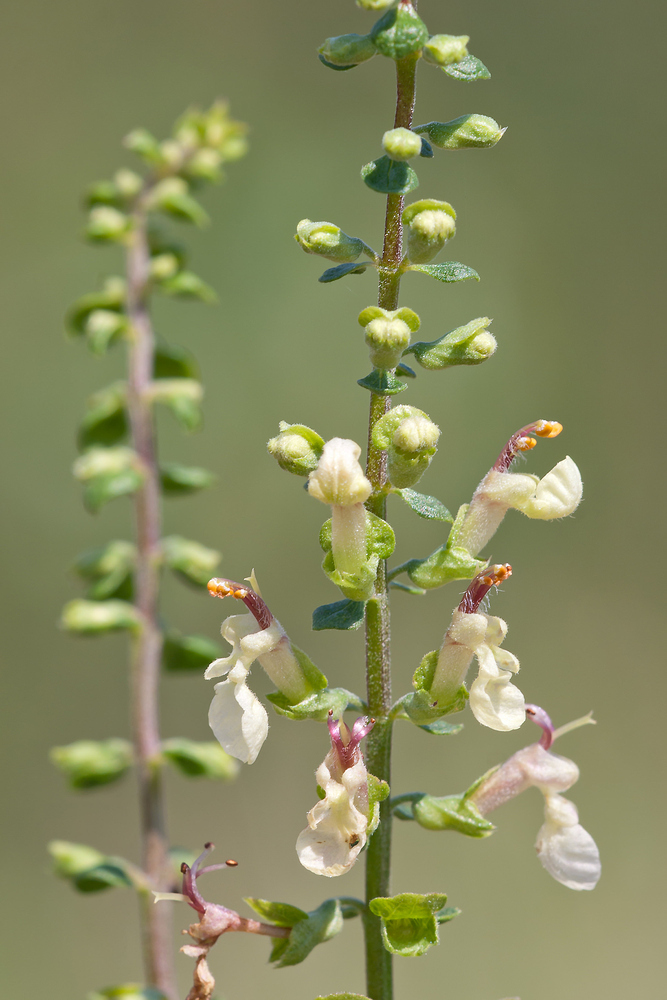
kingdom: Plantae
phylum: Tracheophyta
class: Magnoliopsida
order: Lamiales
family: Lamiaceae
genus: Teucrium
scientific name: Teucrium scorodonia
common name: Woodland germander
